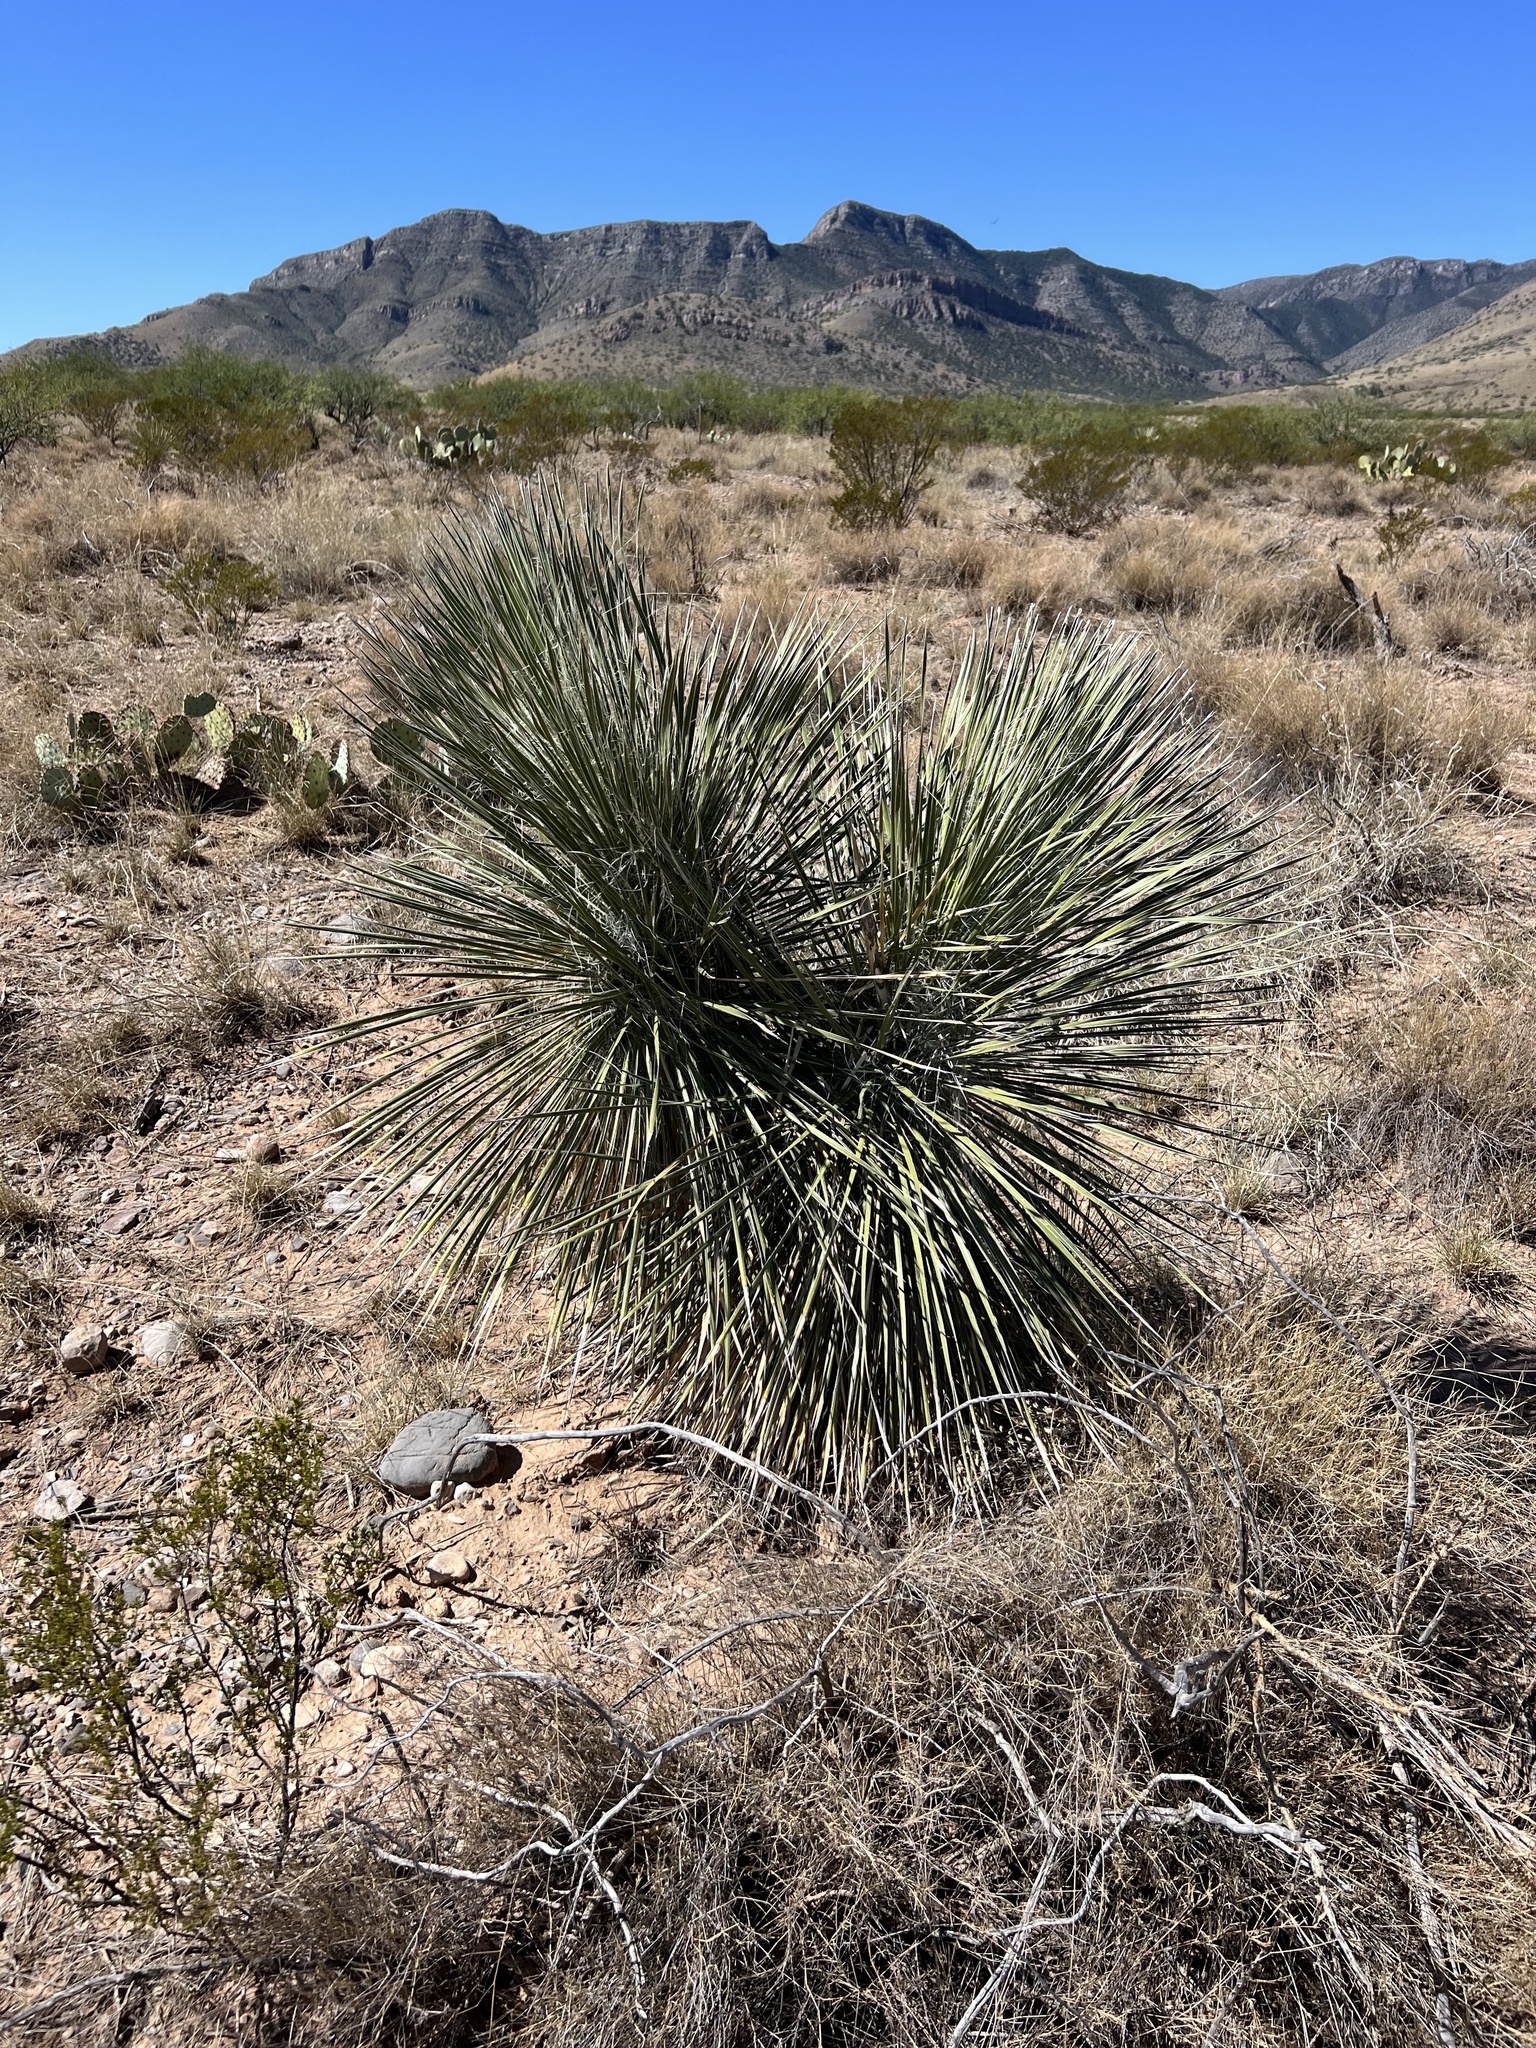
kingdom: Plantae
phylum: Tracheophyta
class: Liliopsida
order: Asparagales
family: Asparagaceae
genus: Yucca
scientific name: Yucca elata
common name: Palmella
